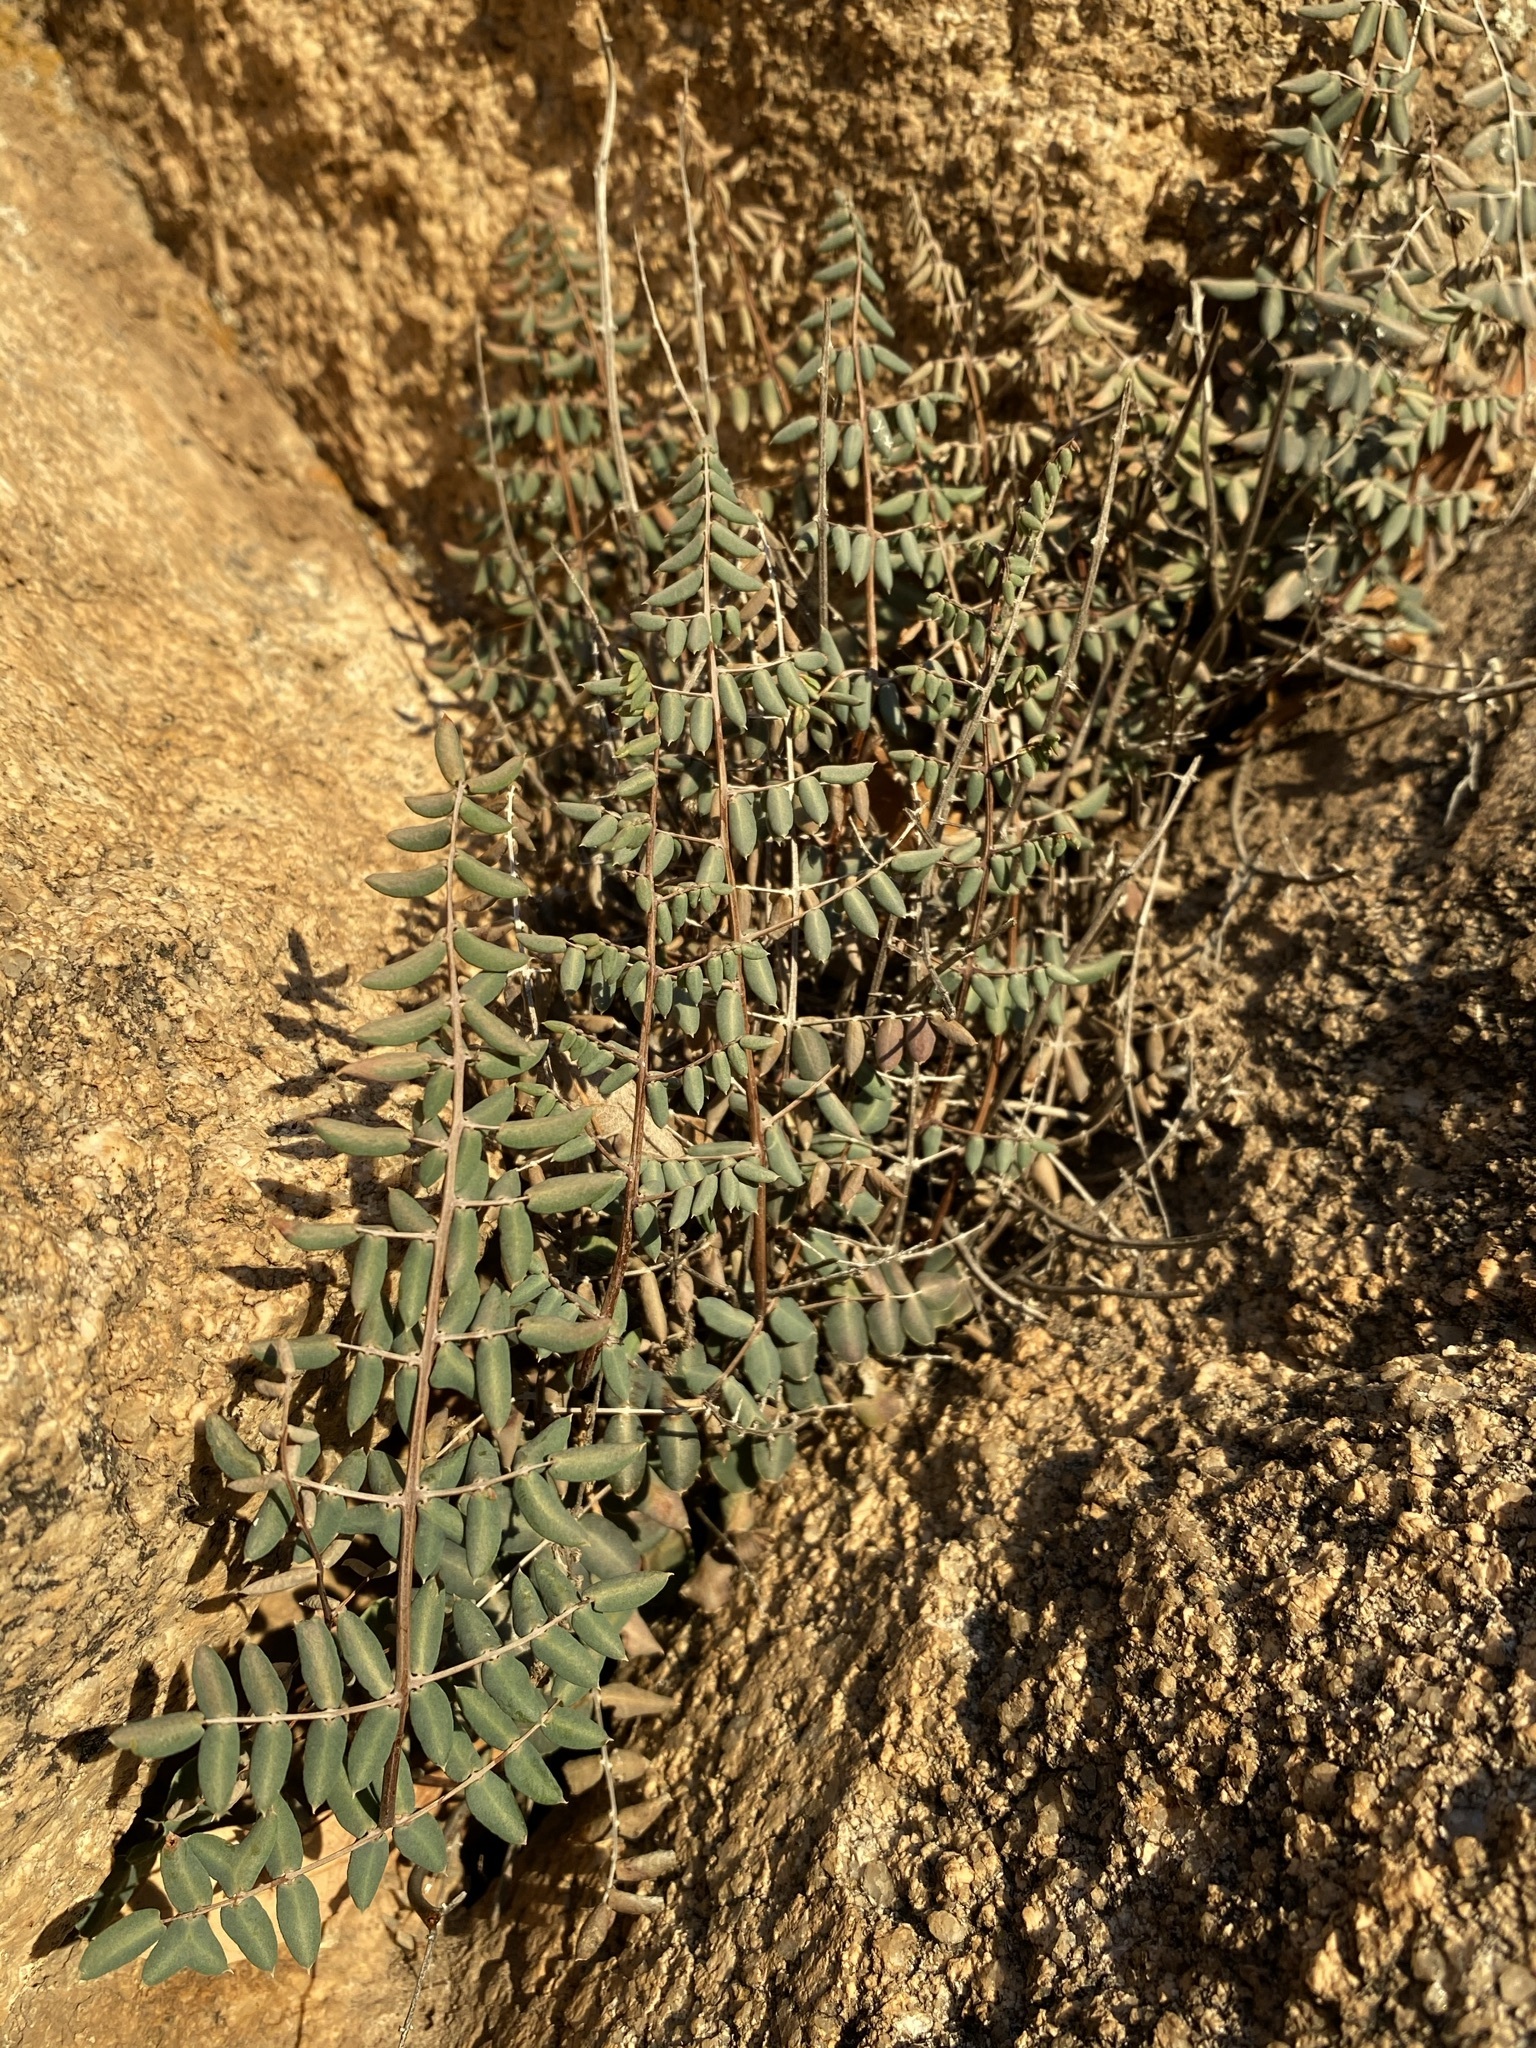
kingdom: Plantae
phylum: Tracheophyta
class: Polypodiopsida
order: Polypodiales
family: Pteridaceae
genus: Pellaea
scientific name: Pellaea truncata
